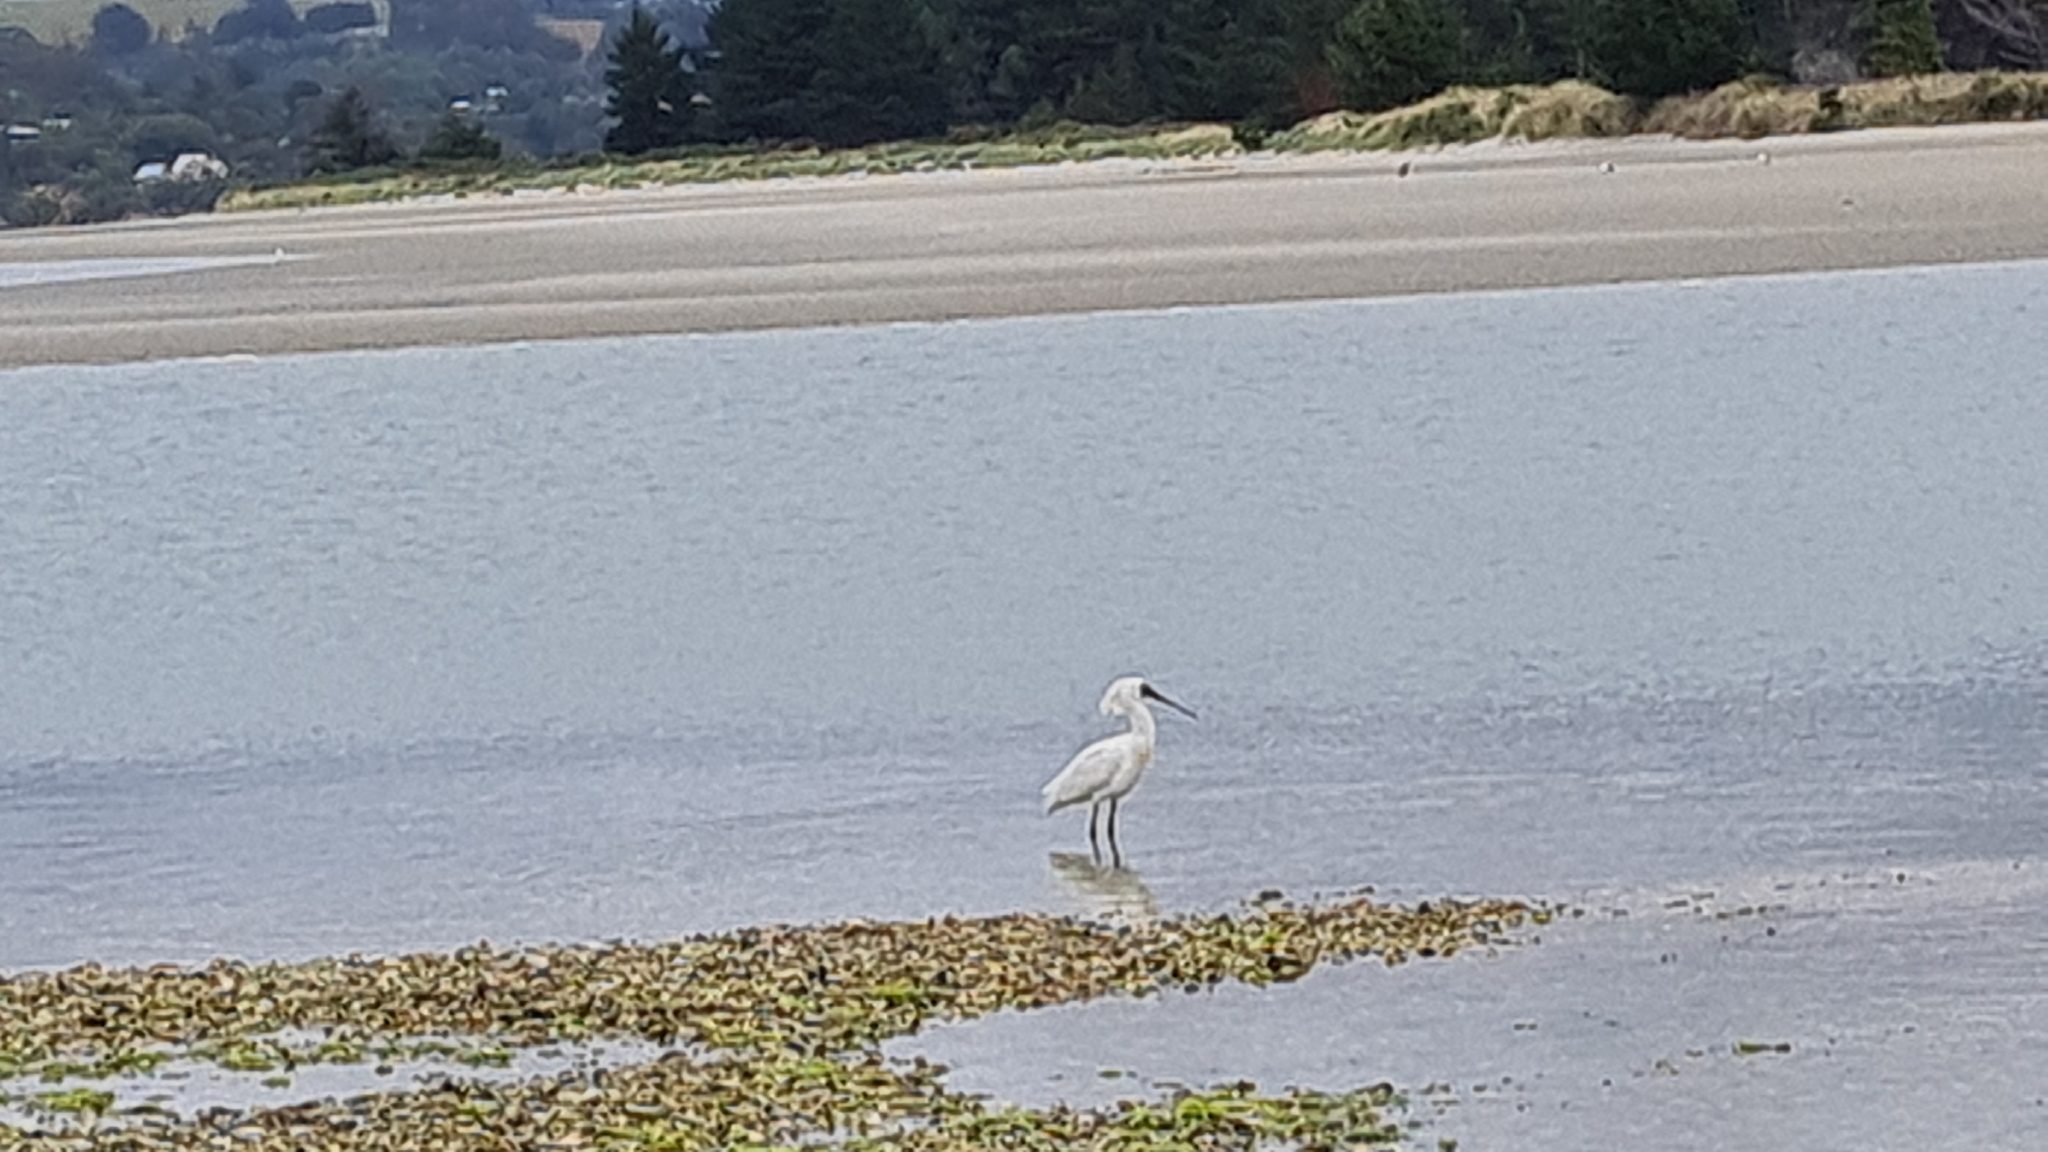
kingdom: Animalia
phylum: Chordata
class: Aves
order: Pelecaniformes
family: Threskiornithidae
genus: Platalea
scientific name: Platalea regia
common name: Royal spoonbill
